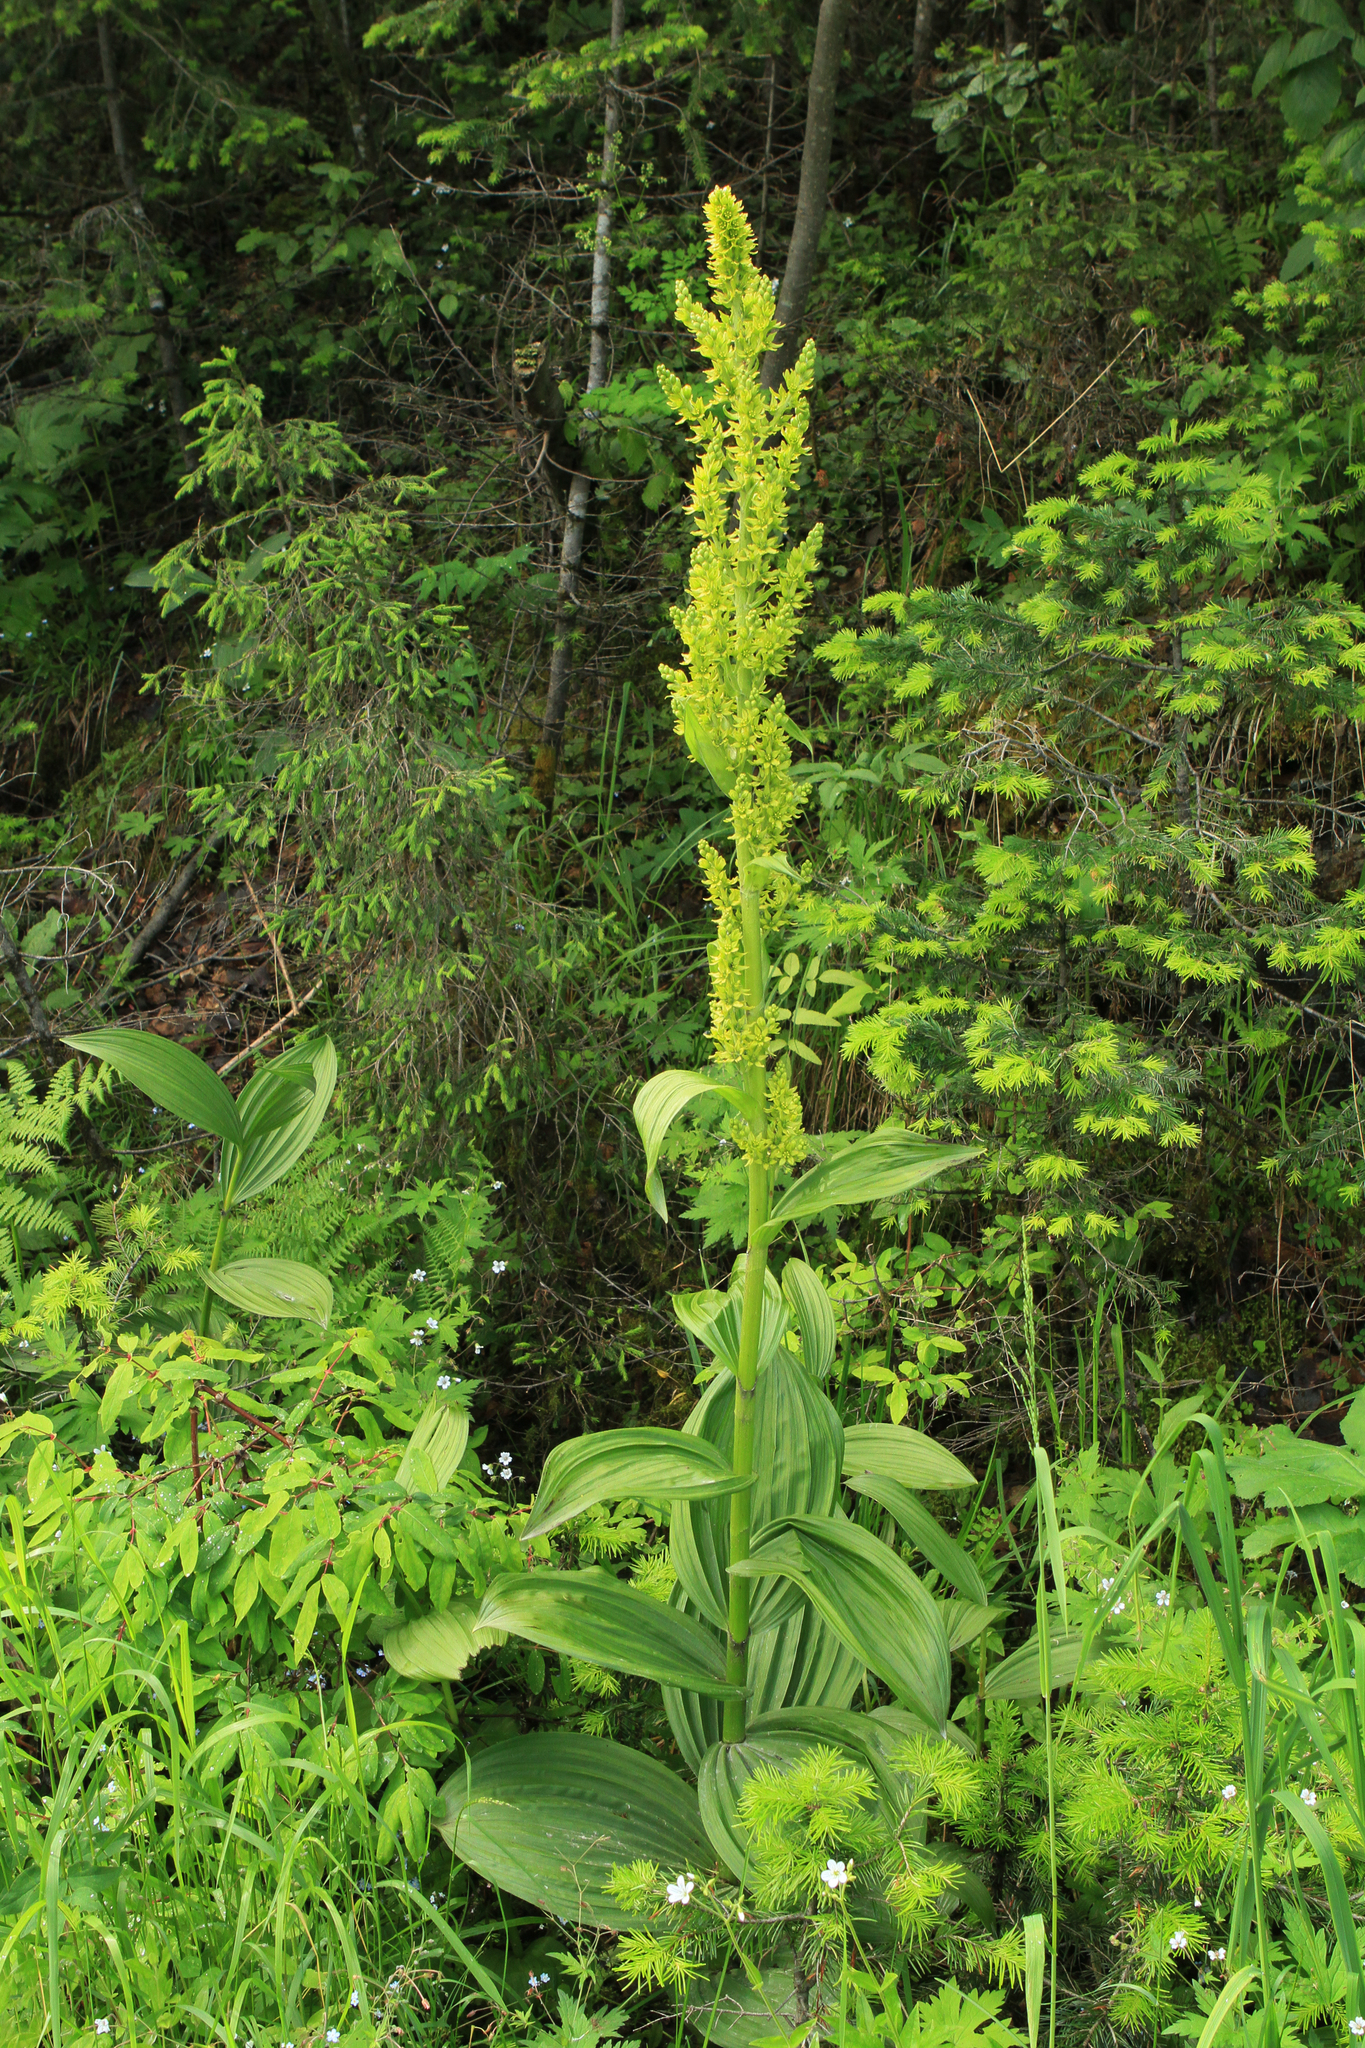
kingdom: Plantae
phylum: Tracheophyta
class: Liliopsida
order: Liliales
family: Melanthiaceae
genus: Veratrum
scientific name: Veratrum lobelianum
